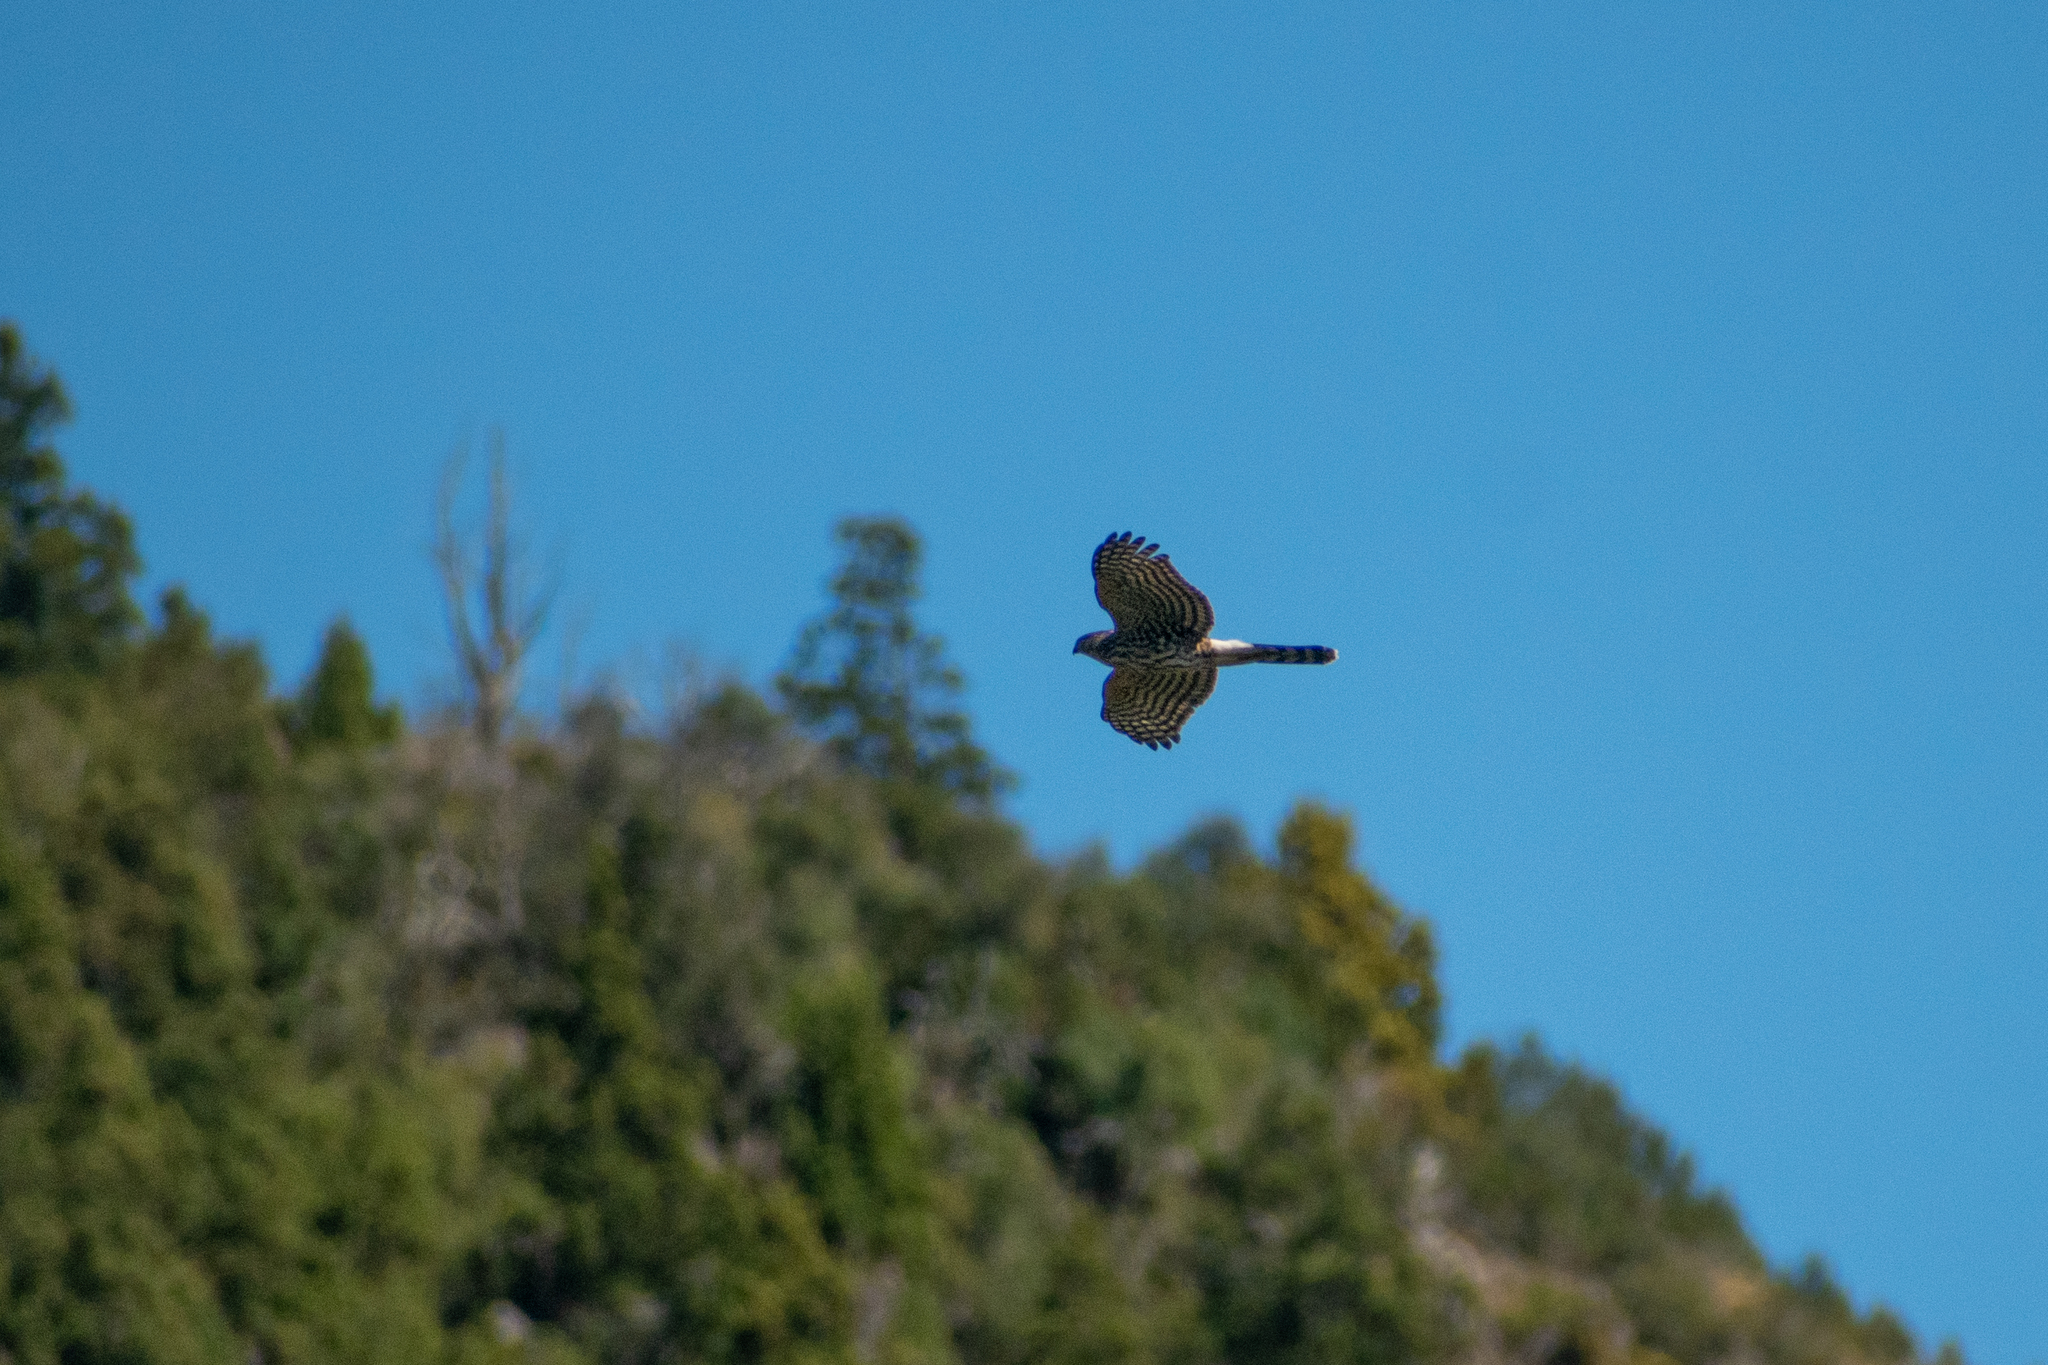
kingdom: Animalia
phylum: Chordata
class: Aves
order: Accipitriformes
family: Accipitridae
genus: Accipiter
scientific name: Accipiter chilensis
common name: Chilean hawk
